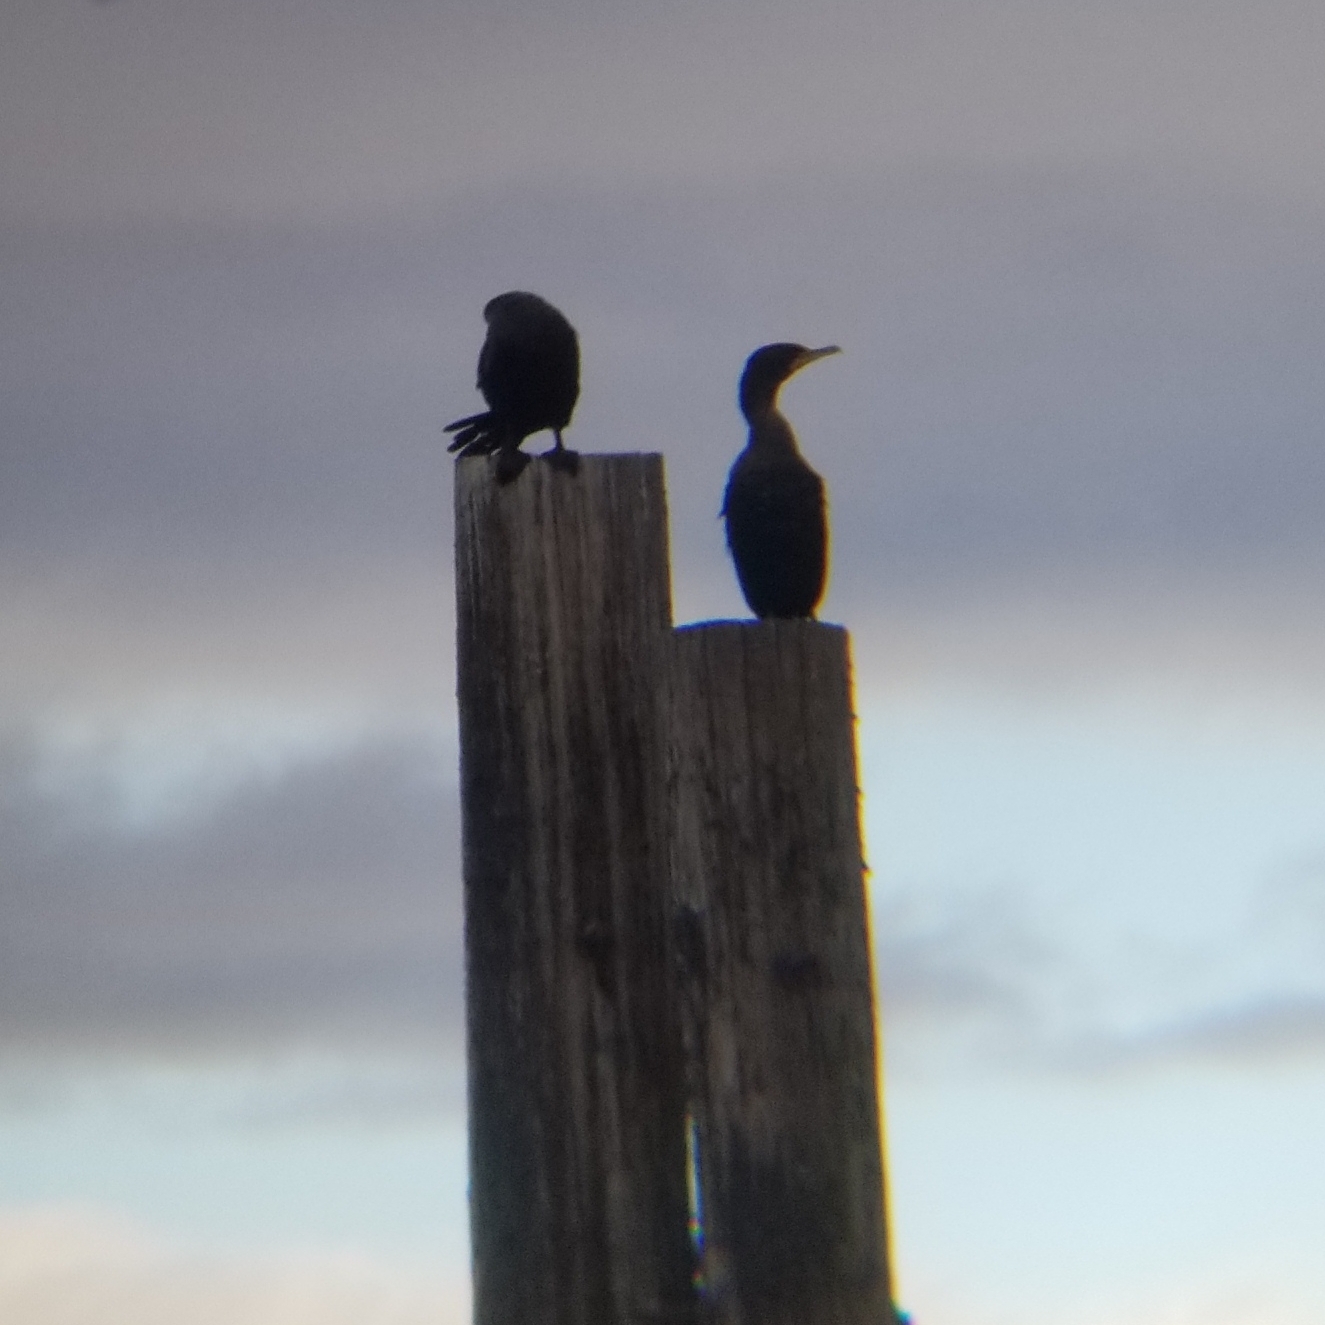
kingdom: Animalia
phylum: Chordata
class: Aves
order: Suliformes
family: Phalacrocoracidae
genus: Phalacrocorax
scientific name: Phalacrocorax auritus
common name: Double-crested cormorant
